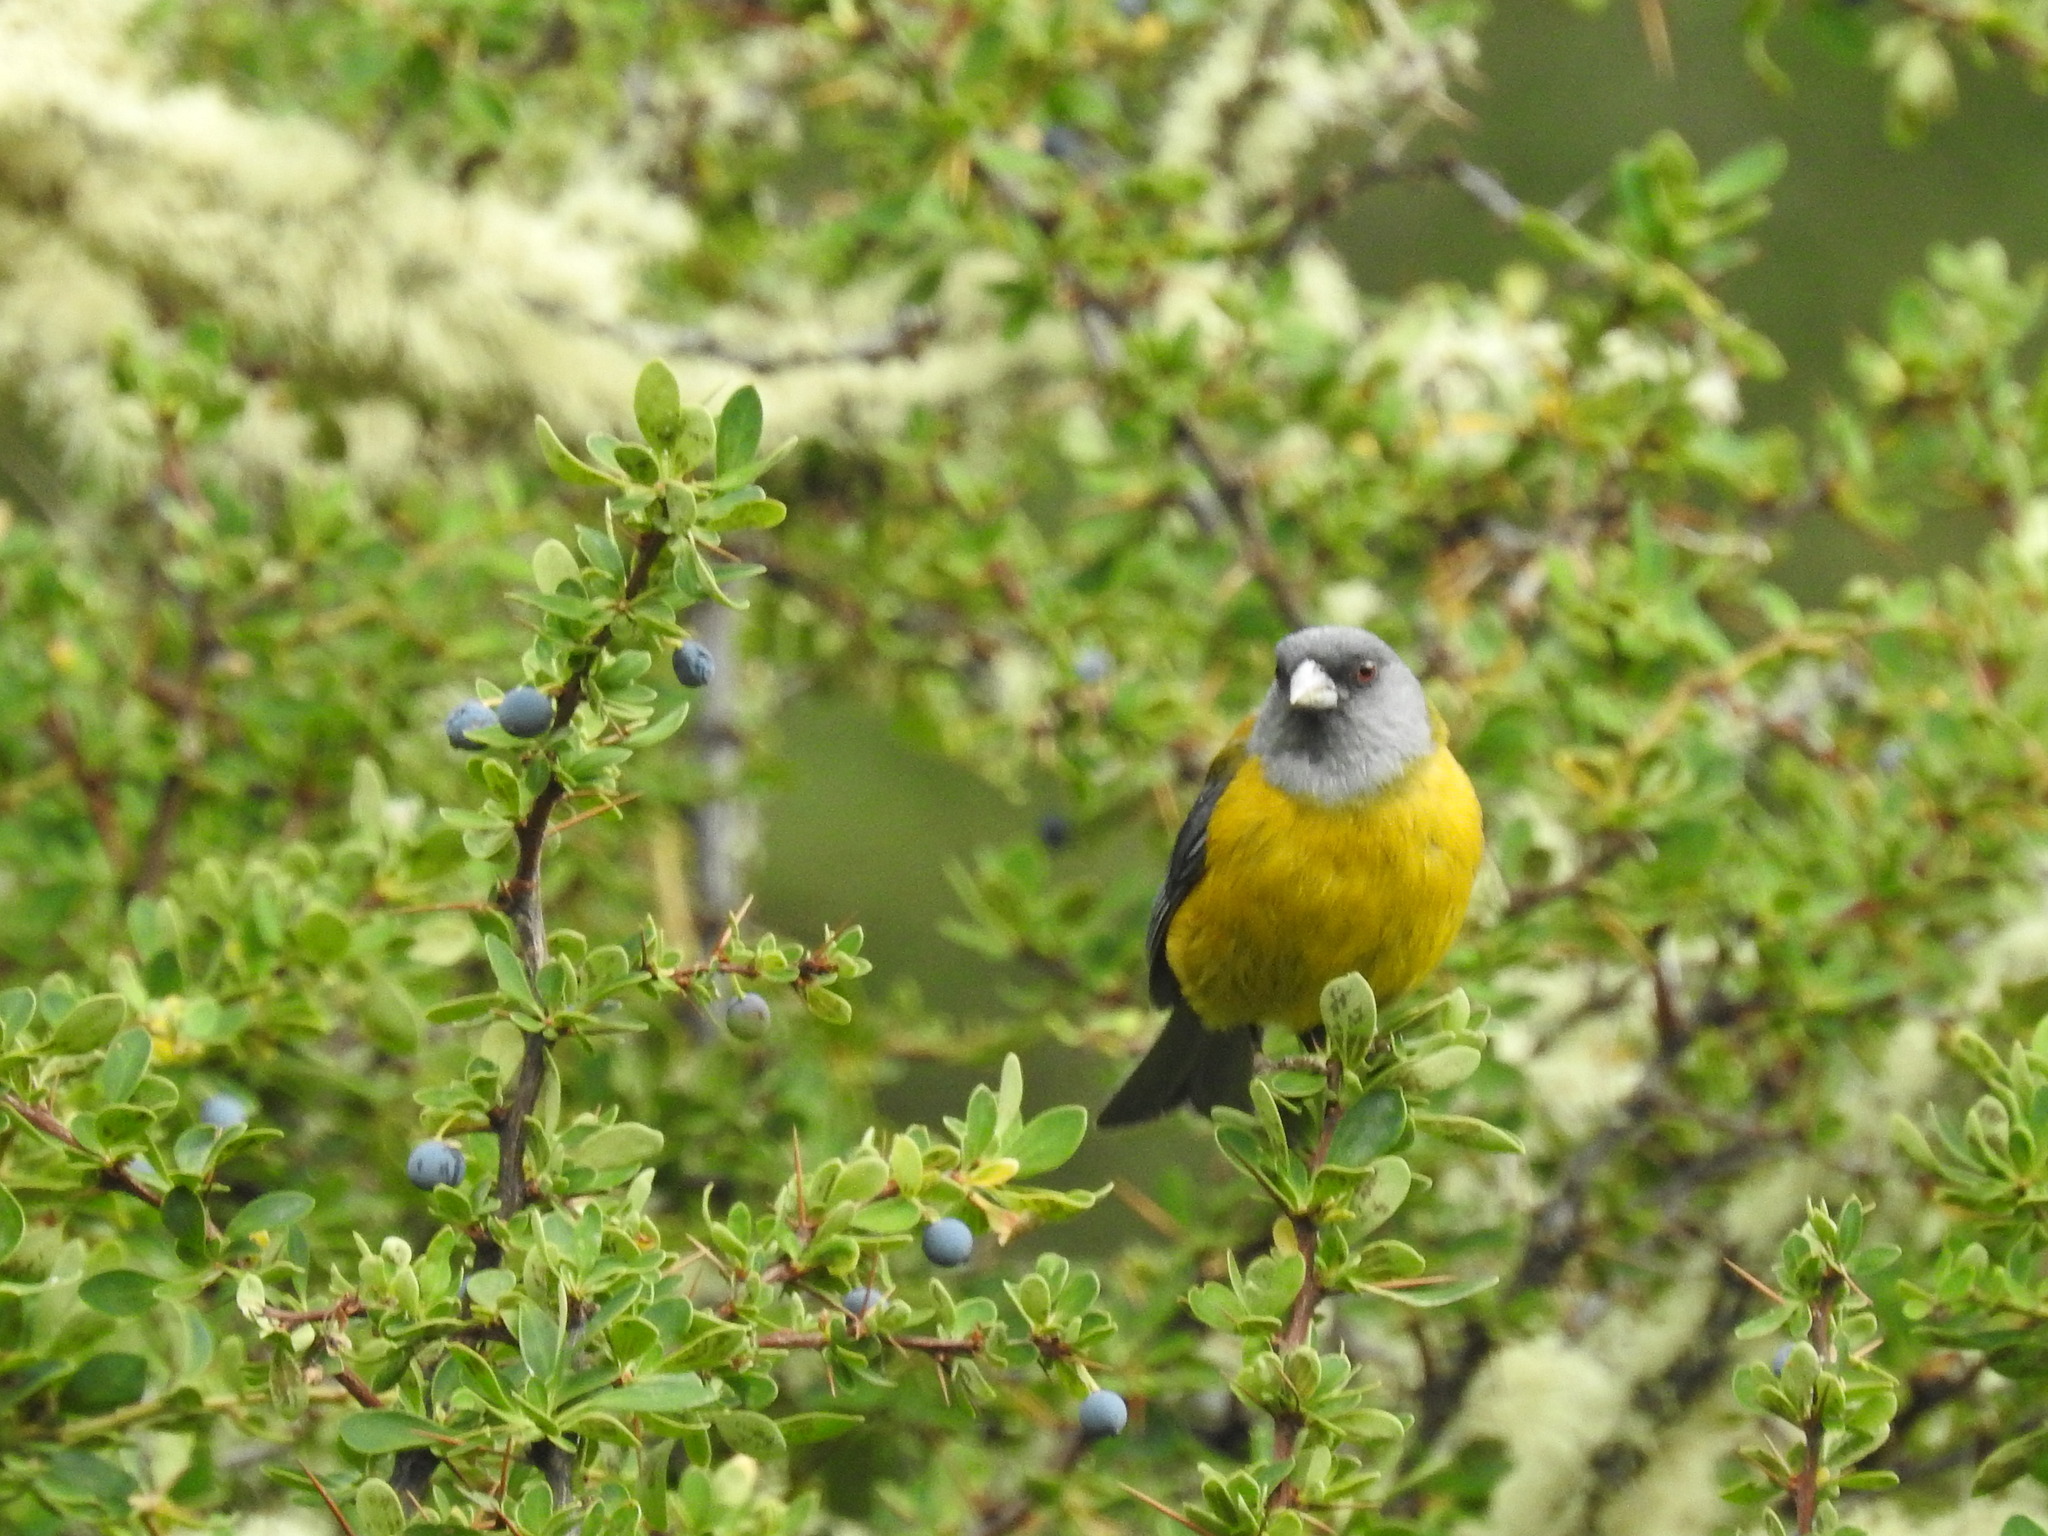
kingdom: Animalia
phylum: Chordata
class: Aves
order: Passeriformes
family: Thraupidae
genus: Phrygilus
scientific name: Phrygilus patagonicus
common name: Patagonian sierra finch
